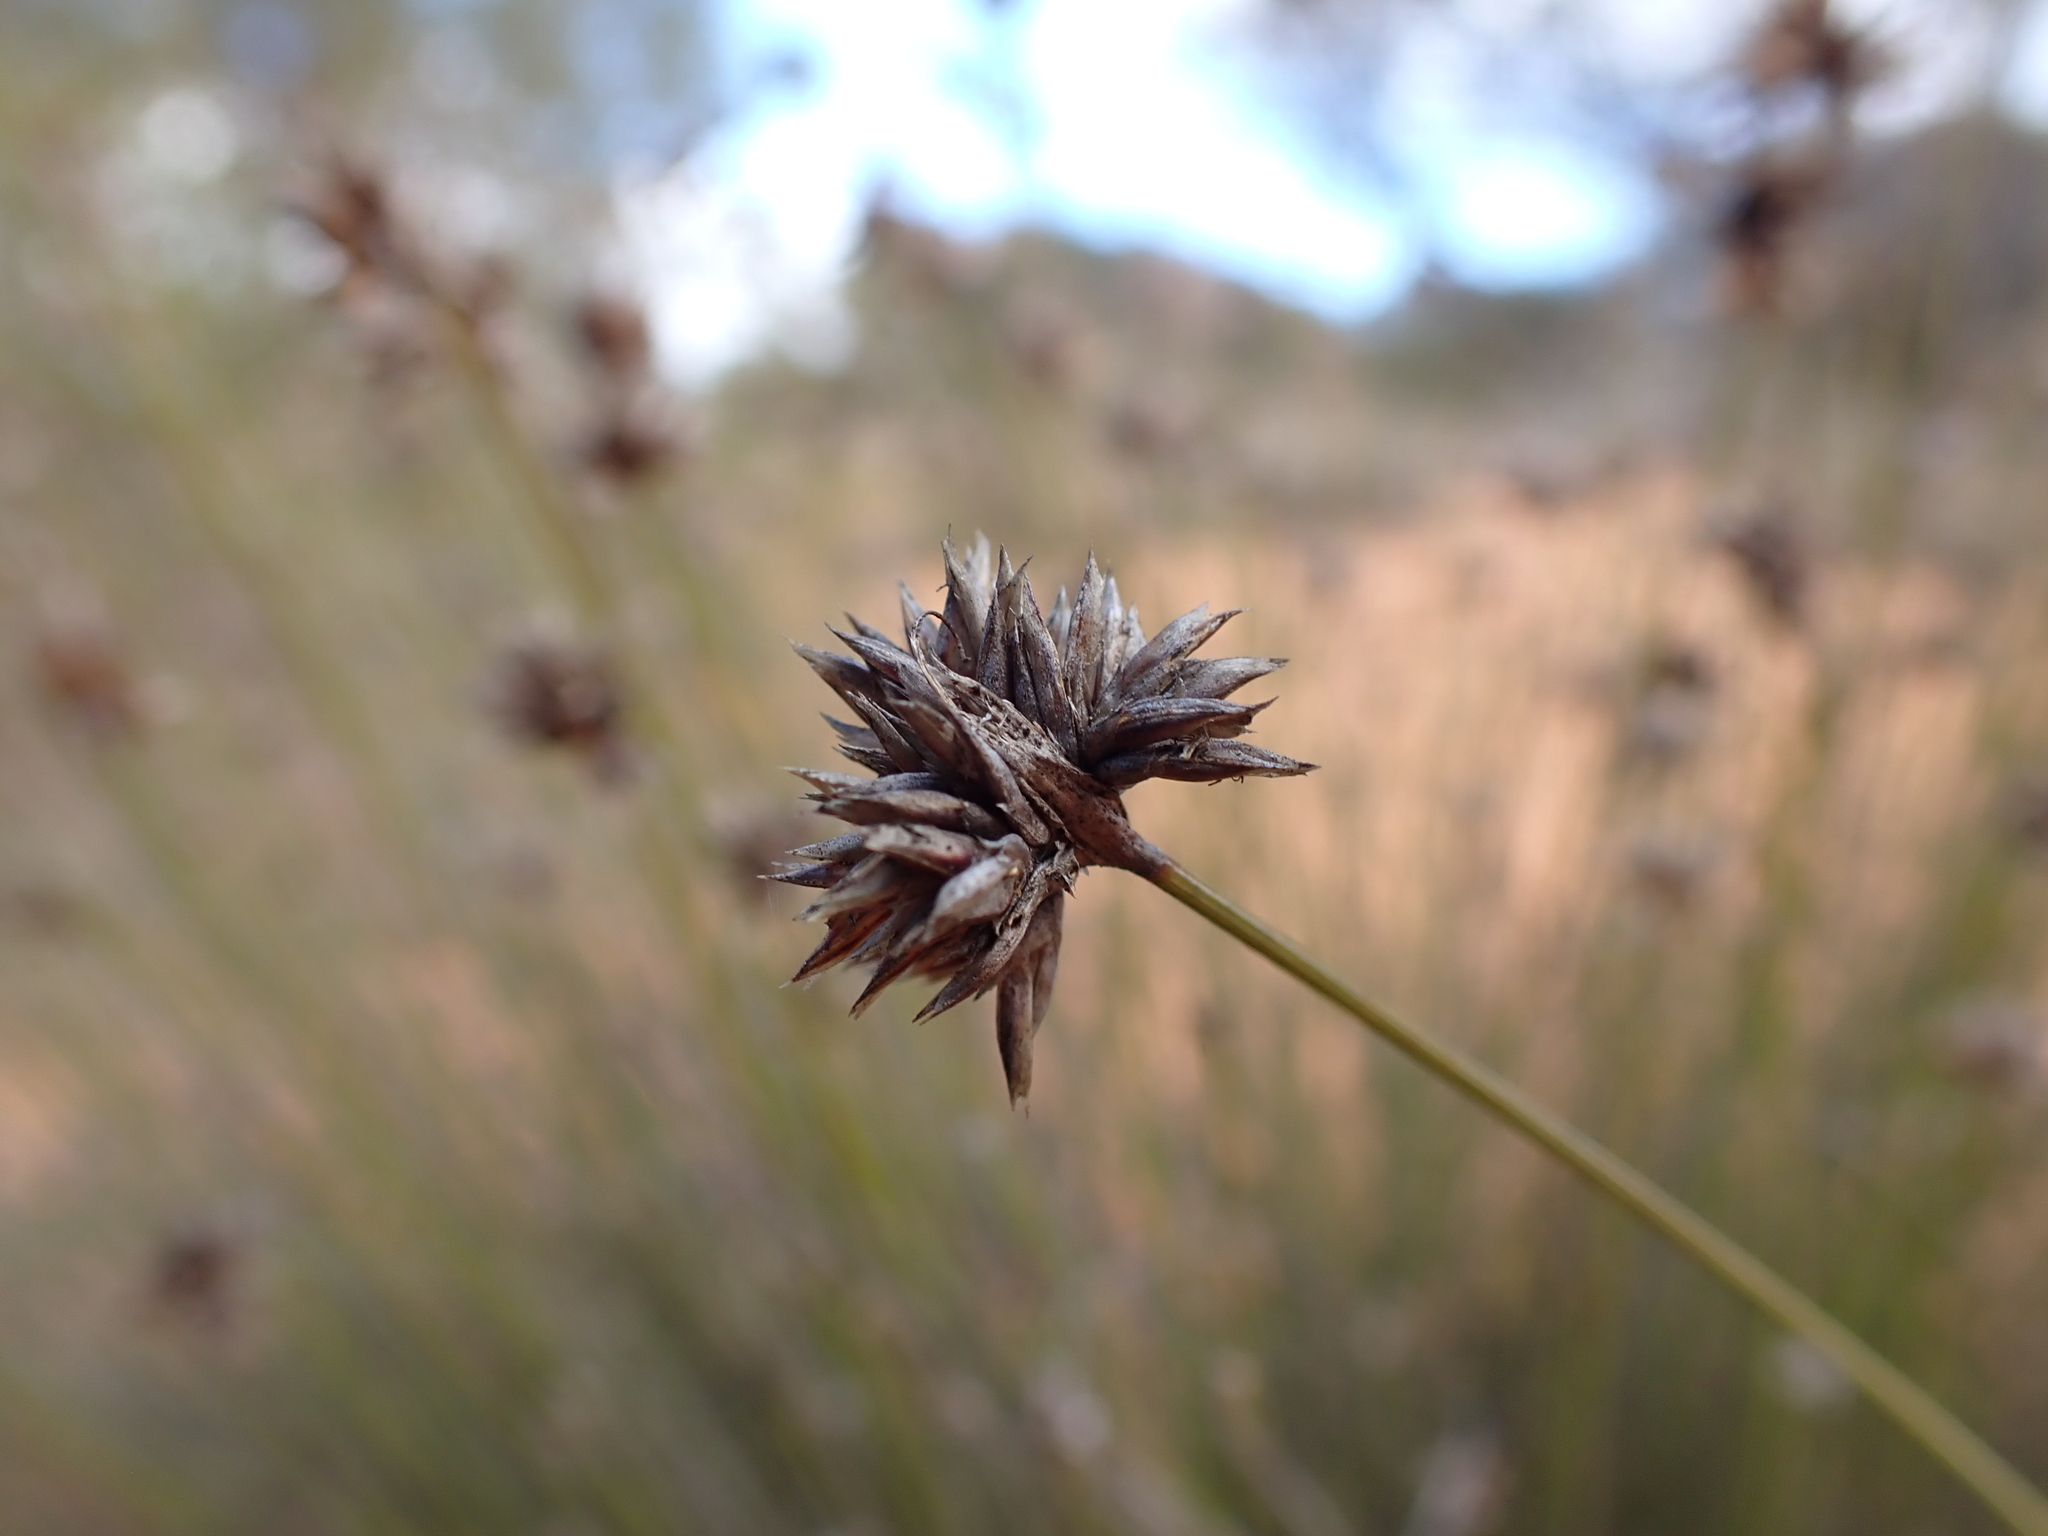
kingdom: Plantae
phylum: Tracheophyta
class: Liliopsida
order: Poales
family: Cyperaceae
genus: Schoenus
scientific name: Schoenus subaphyllus
